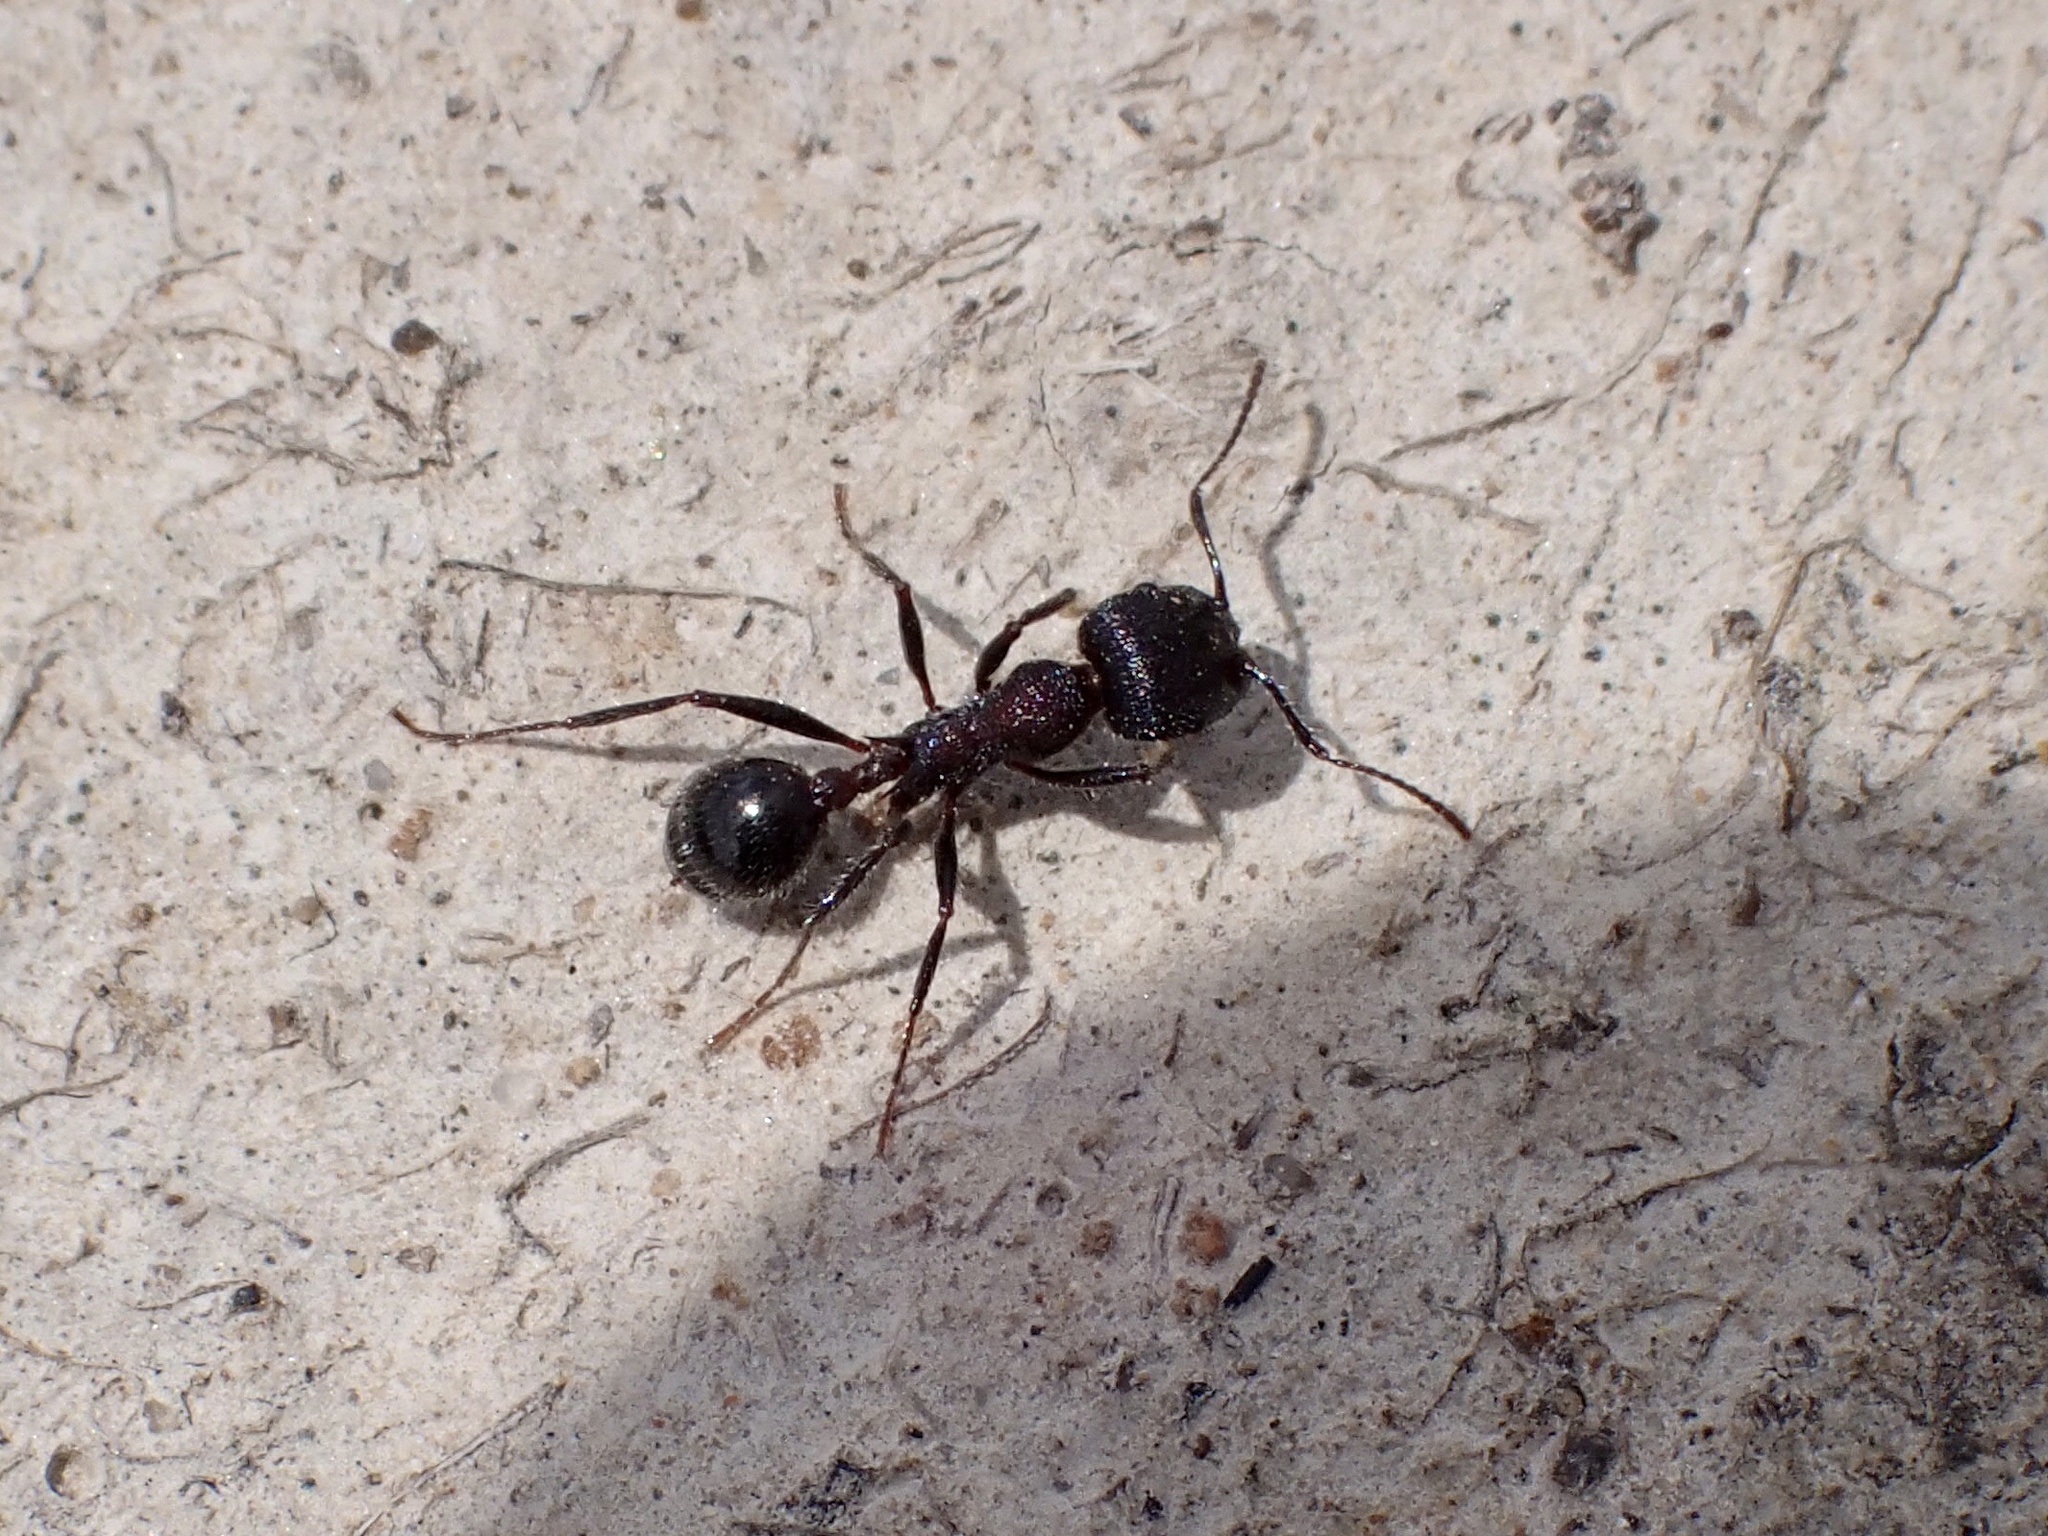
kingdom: Animalia
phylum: Arthropoda
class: Insecta
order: Hymenoptera
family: Formicidae
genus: Veromessor
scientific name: Veromessor andrei
